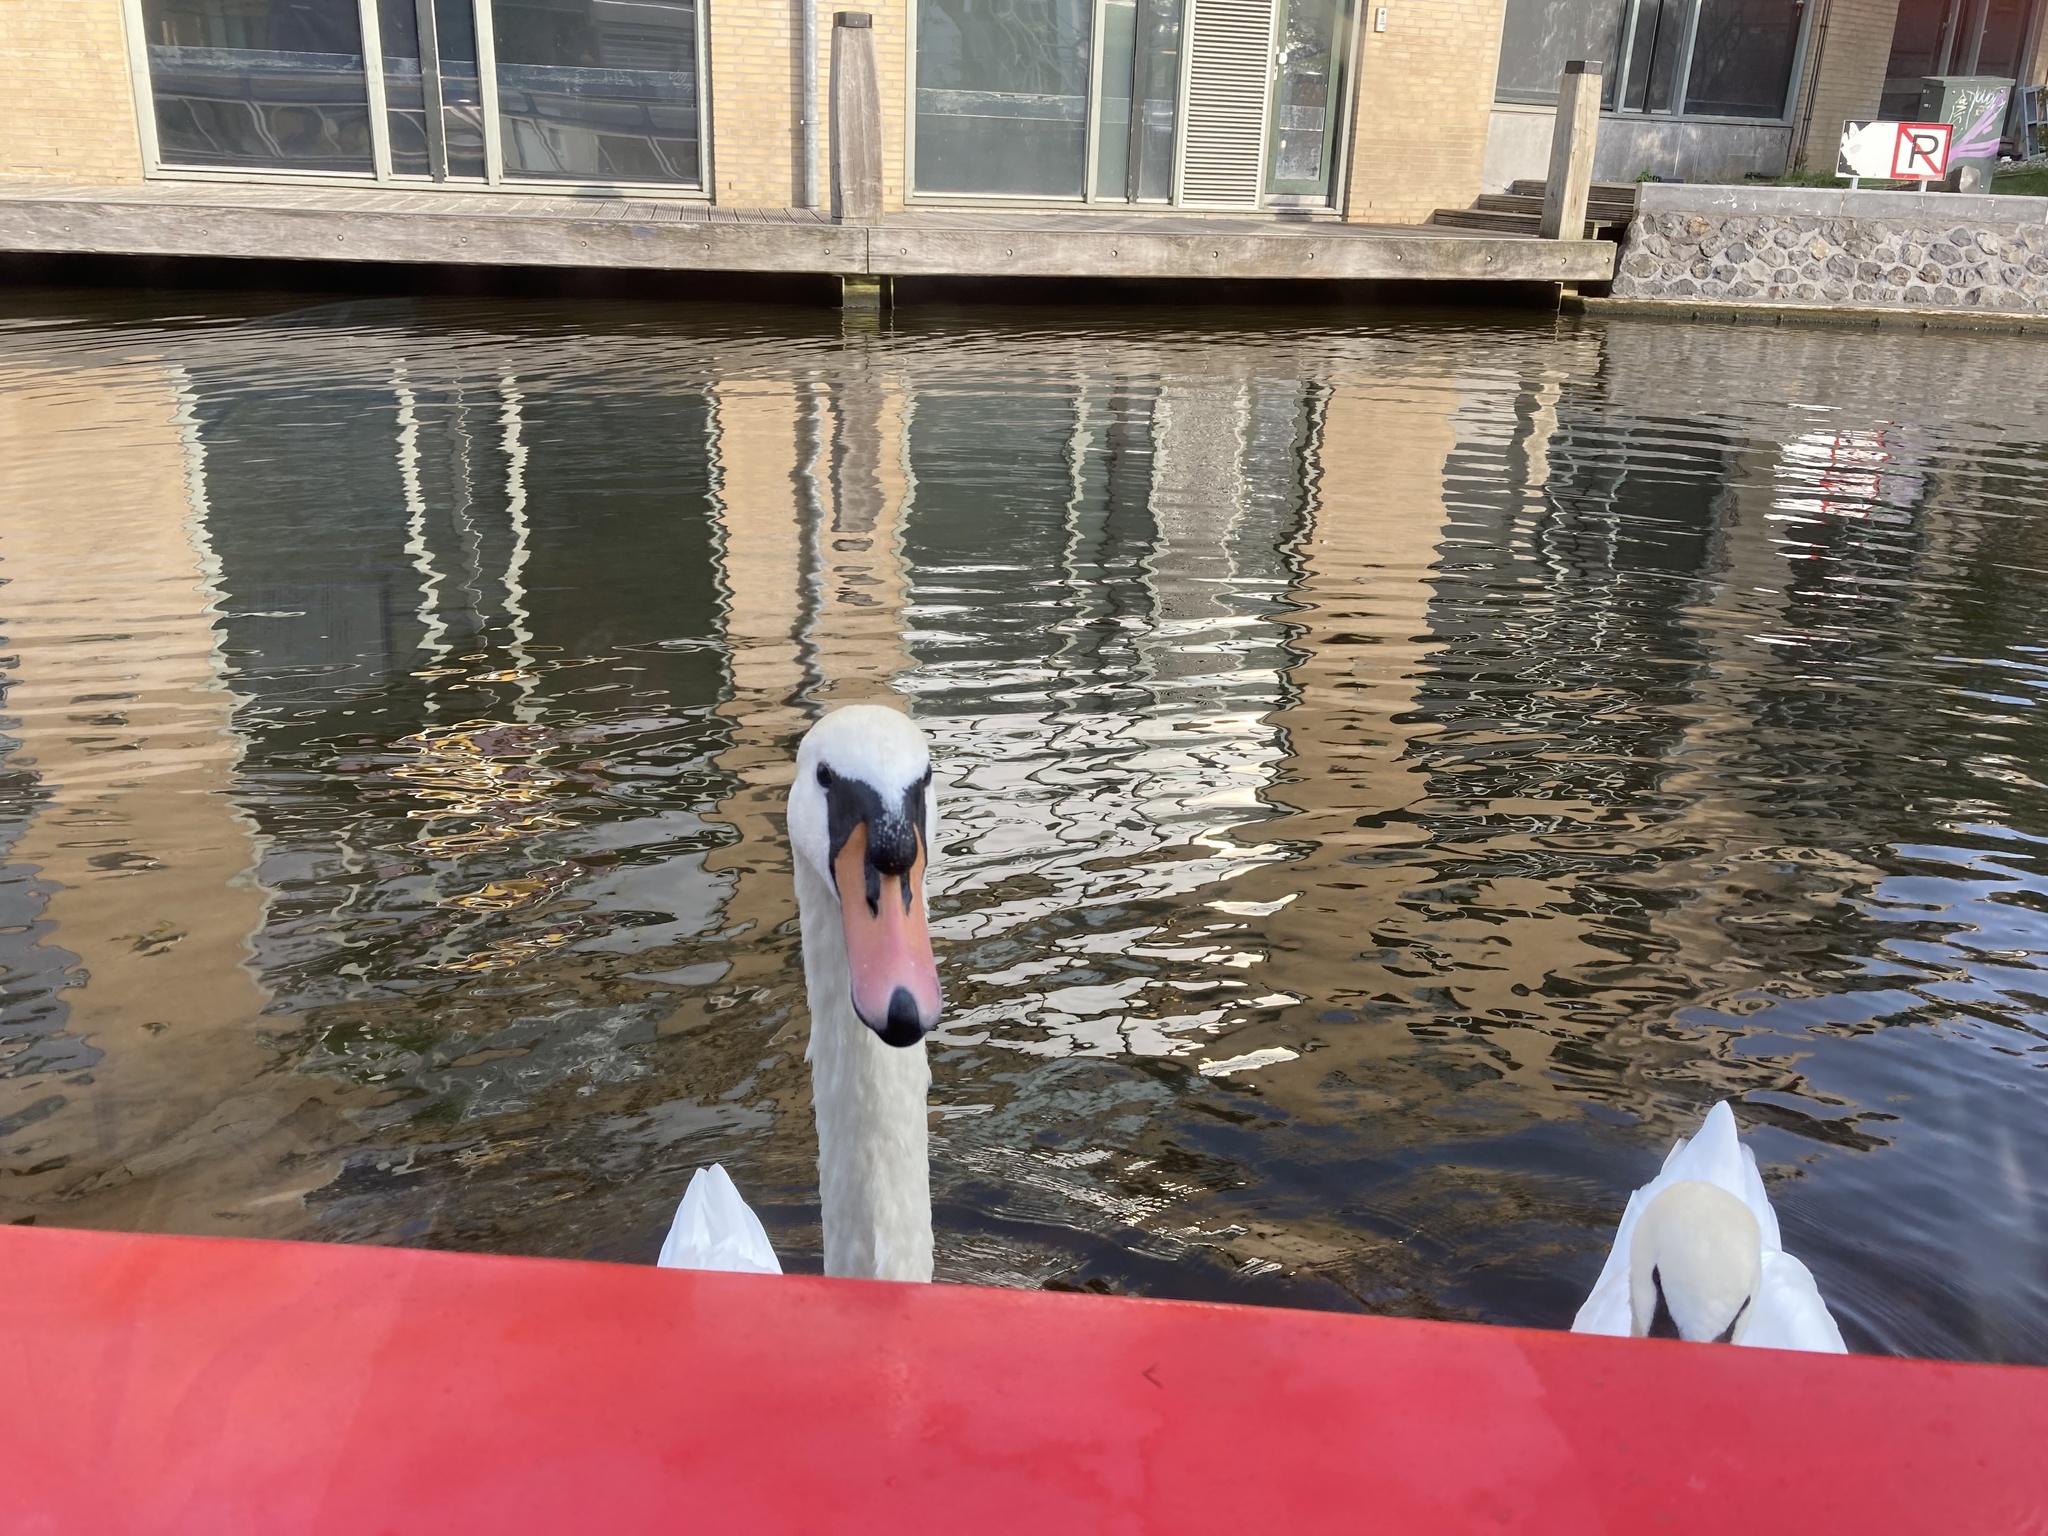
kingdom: Animalia
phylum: Chordata
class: Aves
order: Anseriformes
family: Anatidae
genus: Cygnus
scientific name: Cygnus olor
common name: Mute swan
